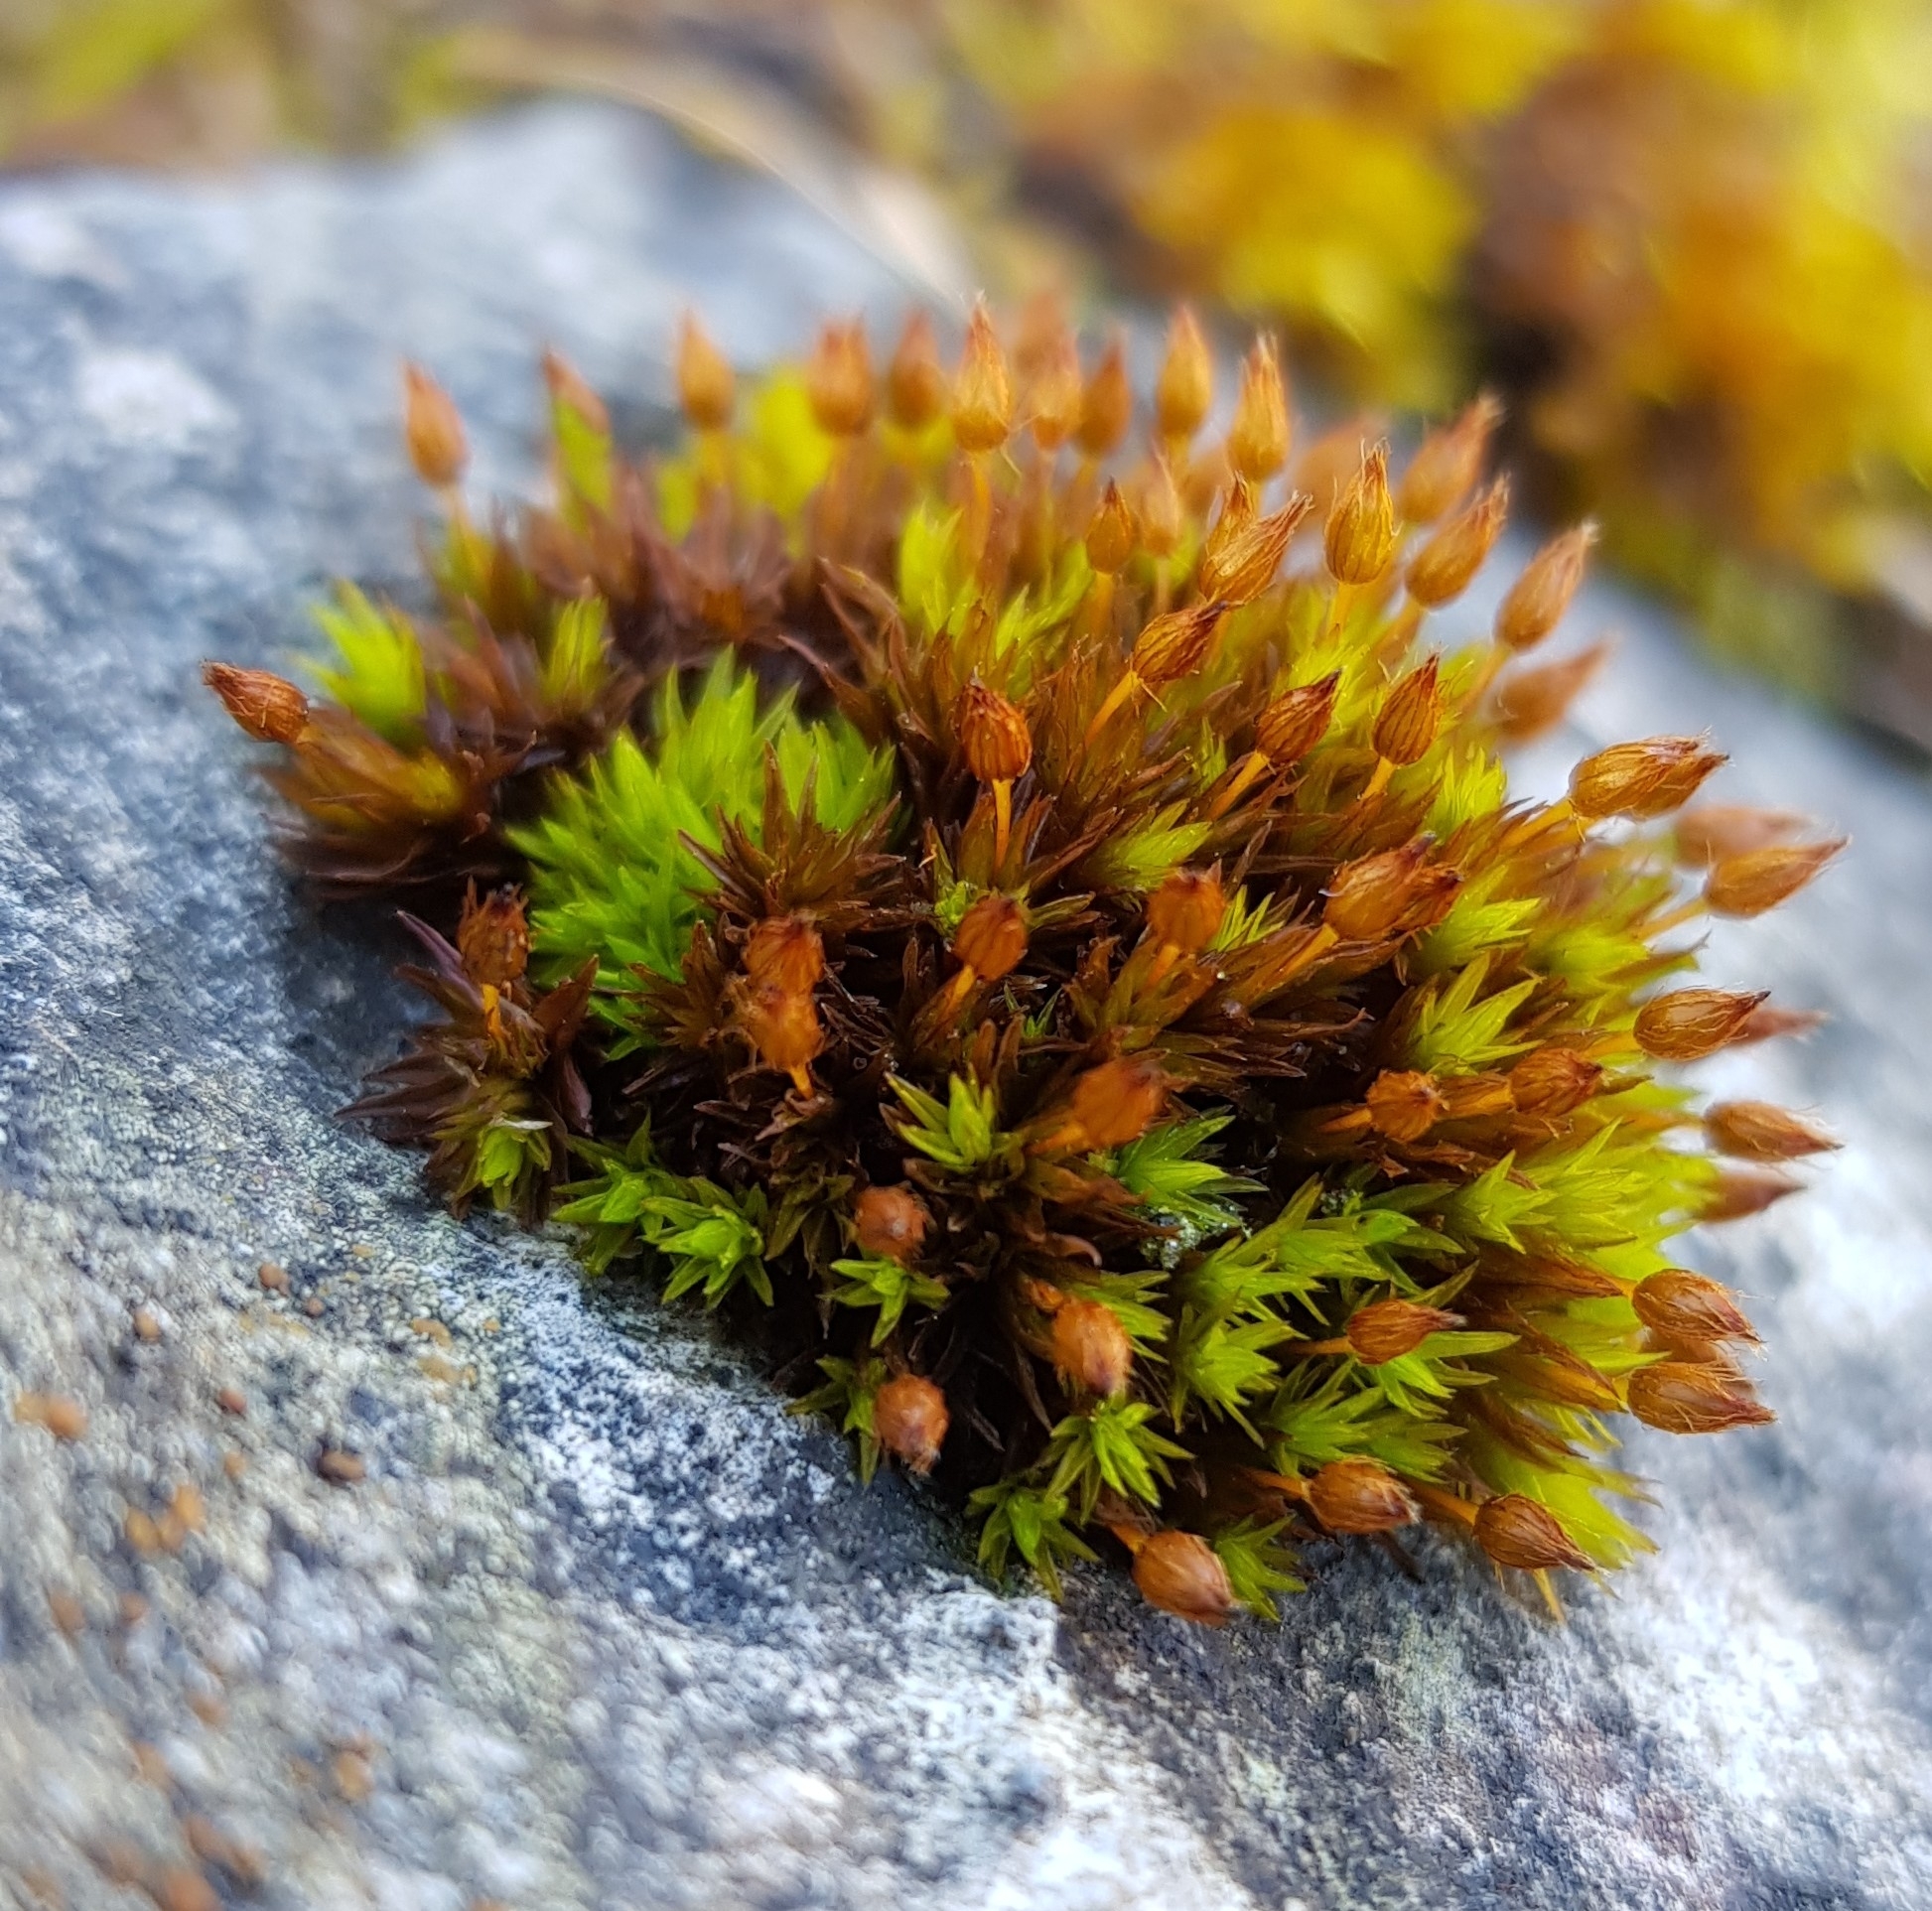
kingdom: Plantae
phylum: Bryophyta
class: Bryopsida
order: Orthotrichales
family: Orthotrichaceae
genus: Orthotrichum
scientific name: Orthotrichum anomalum
